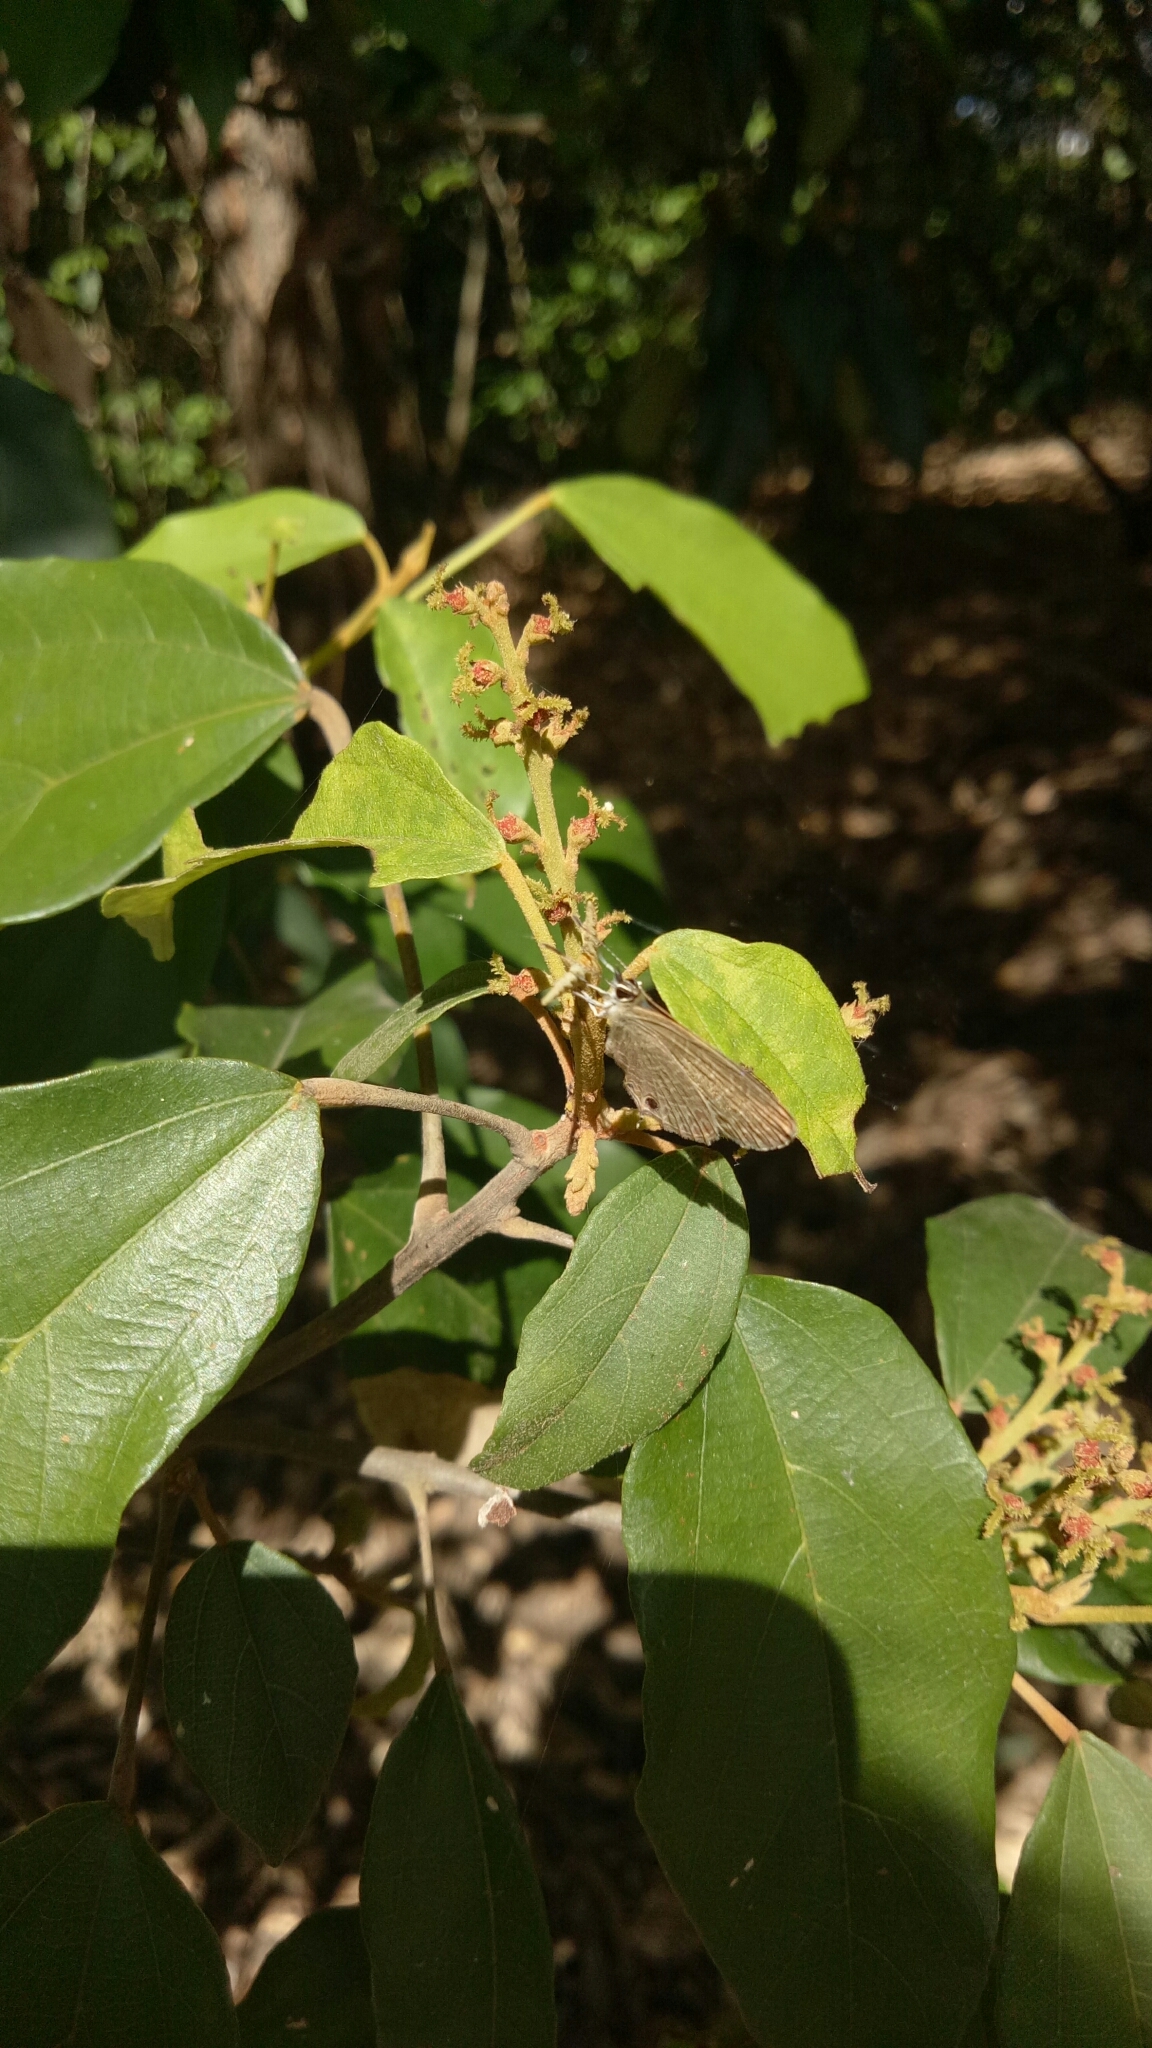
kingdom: Animalia
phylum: Arthropoda
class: Insecta
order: Lepidoptera
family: Lycaenidae
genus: Nacaduba
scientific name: Nacaduba berenice
